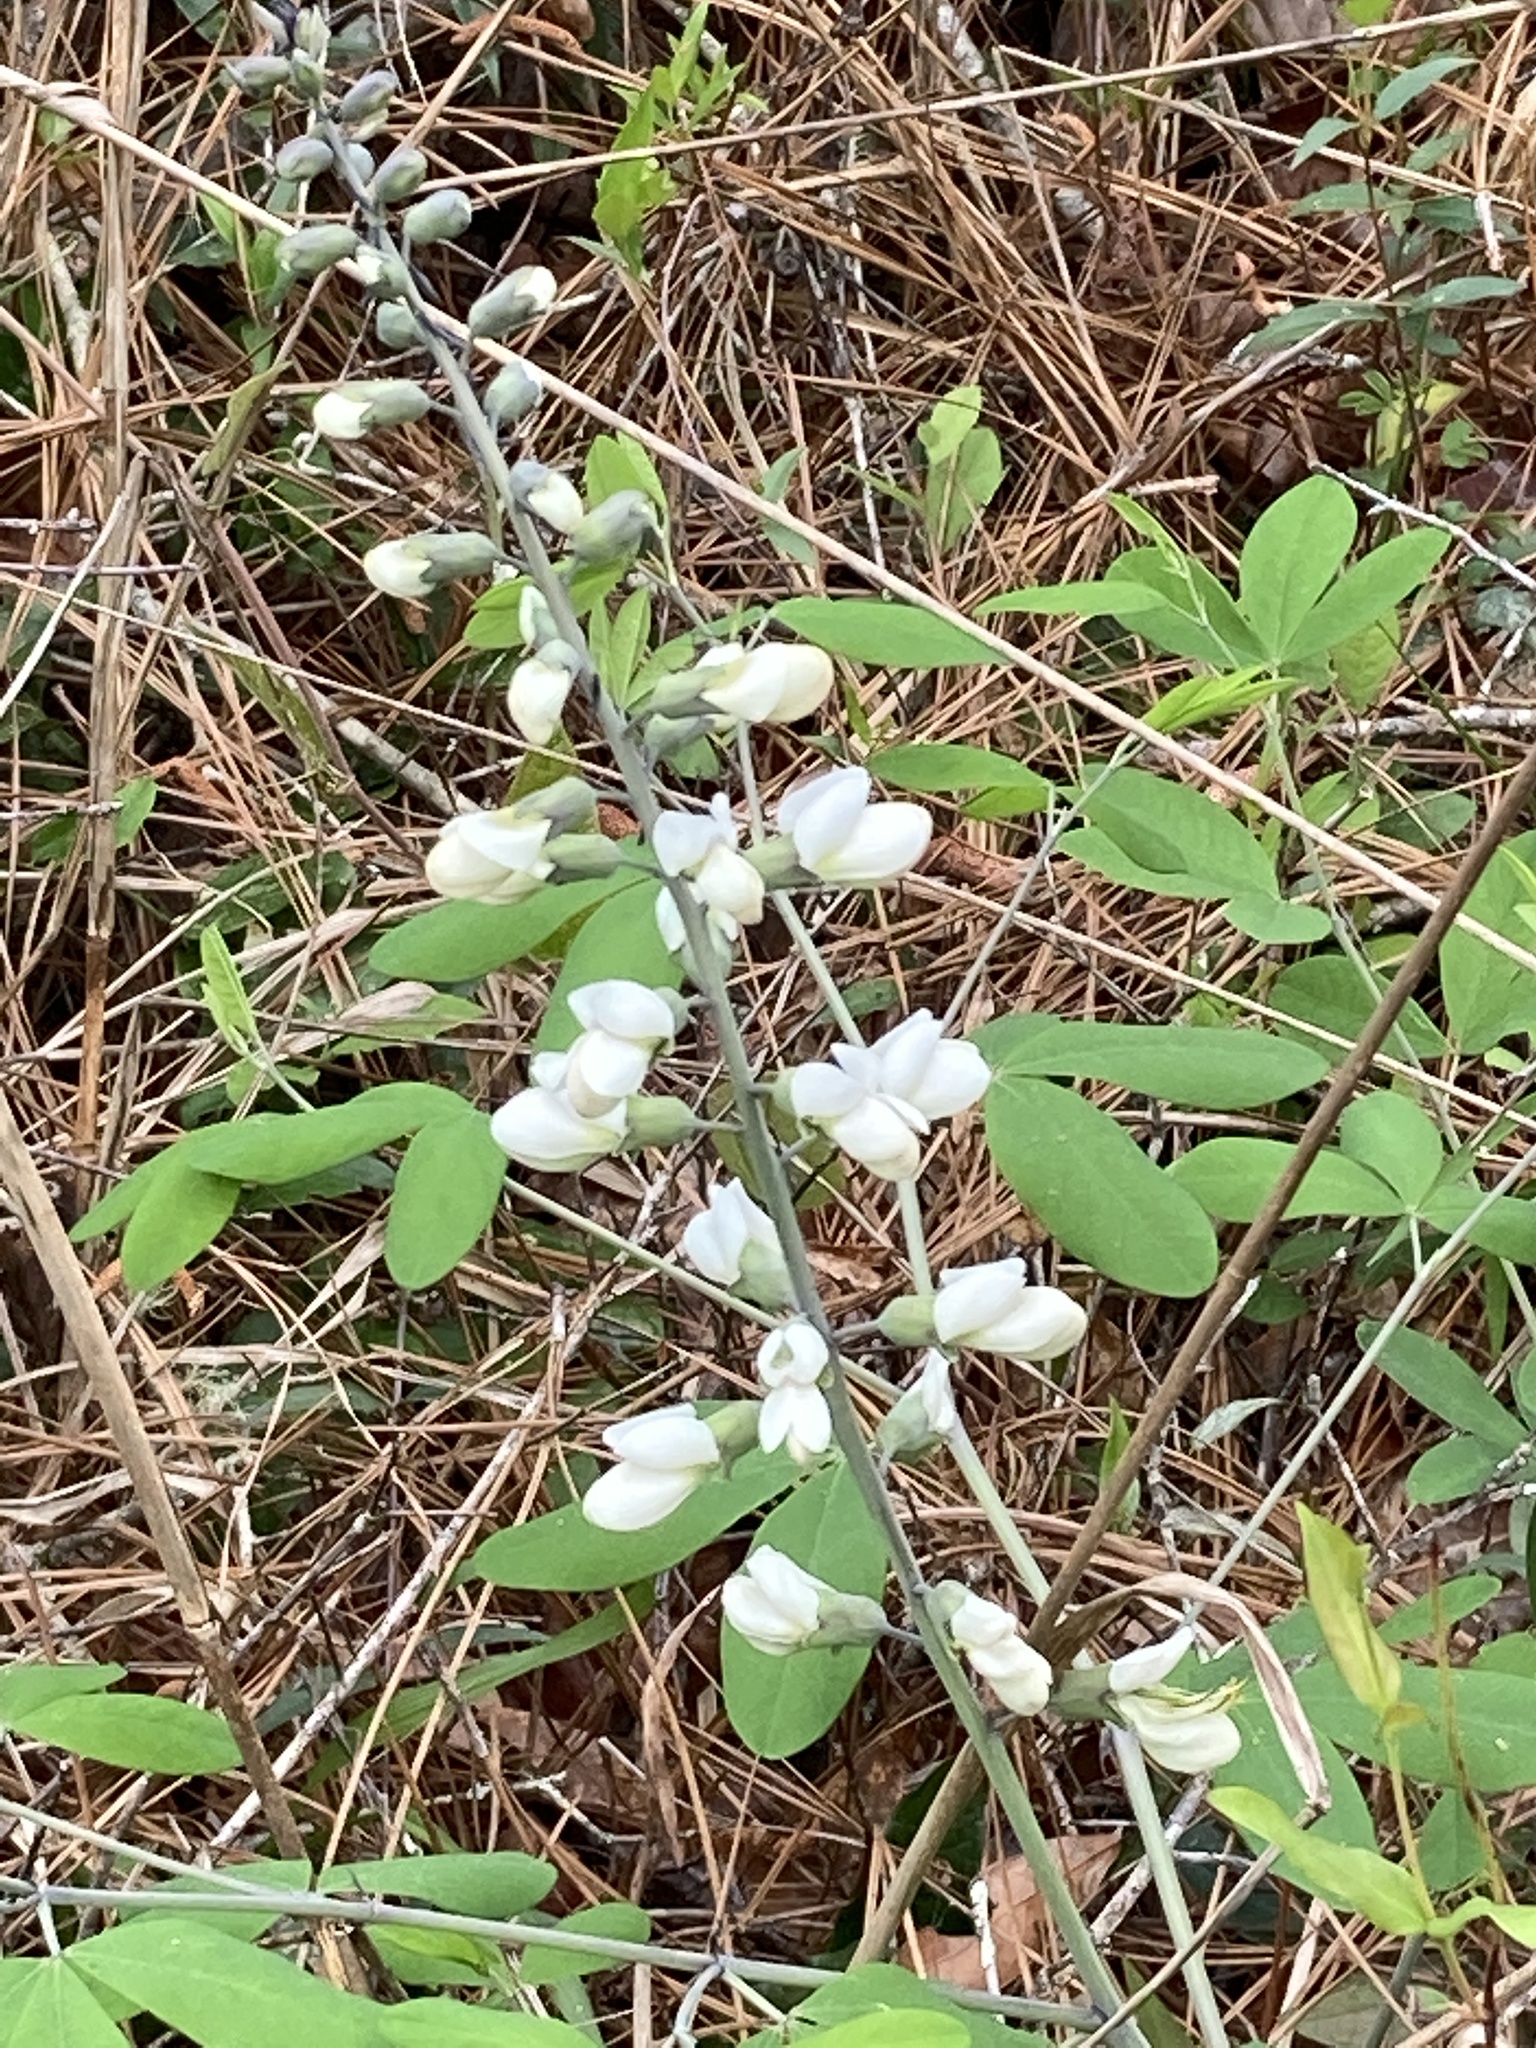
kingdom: Plantae
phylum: Tracheophyta
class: Magnoliopsida
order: Fabales
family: Fabaceae
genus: Baptisia
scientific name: Baptisia alba
